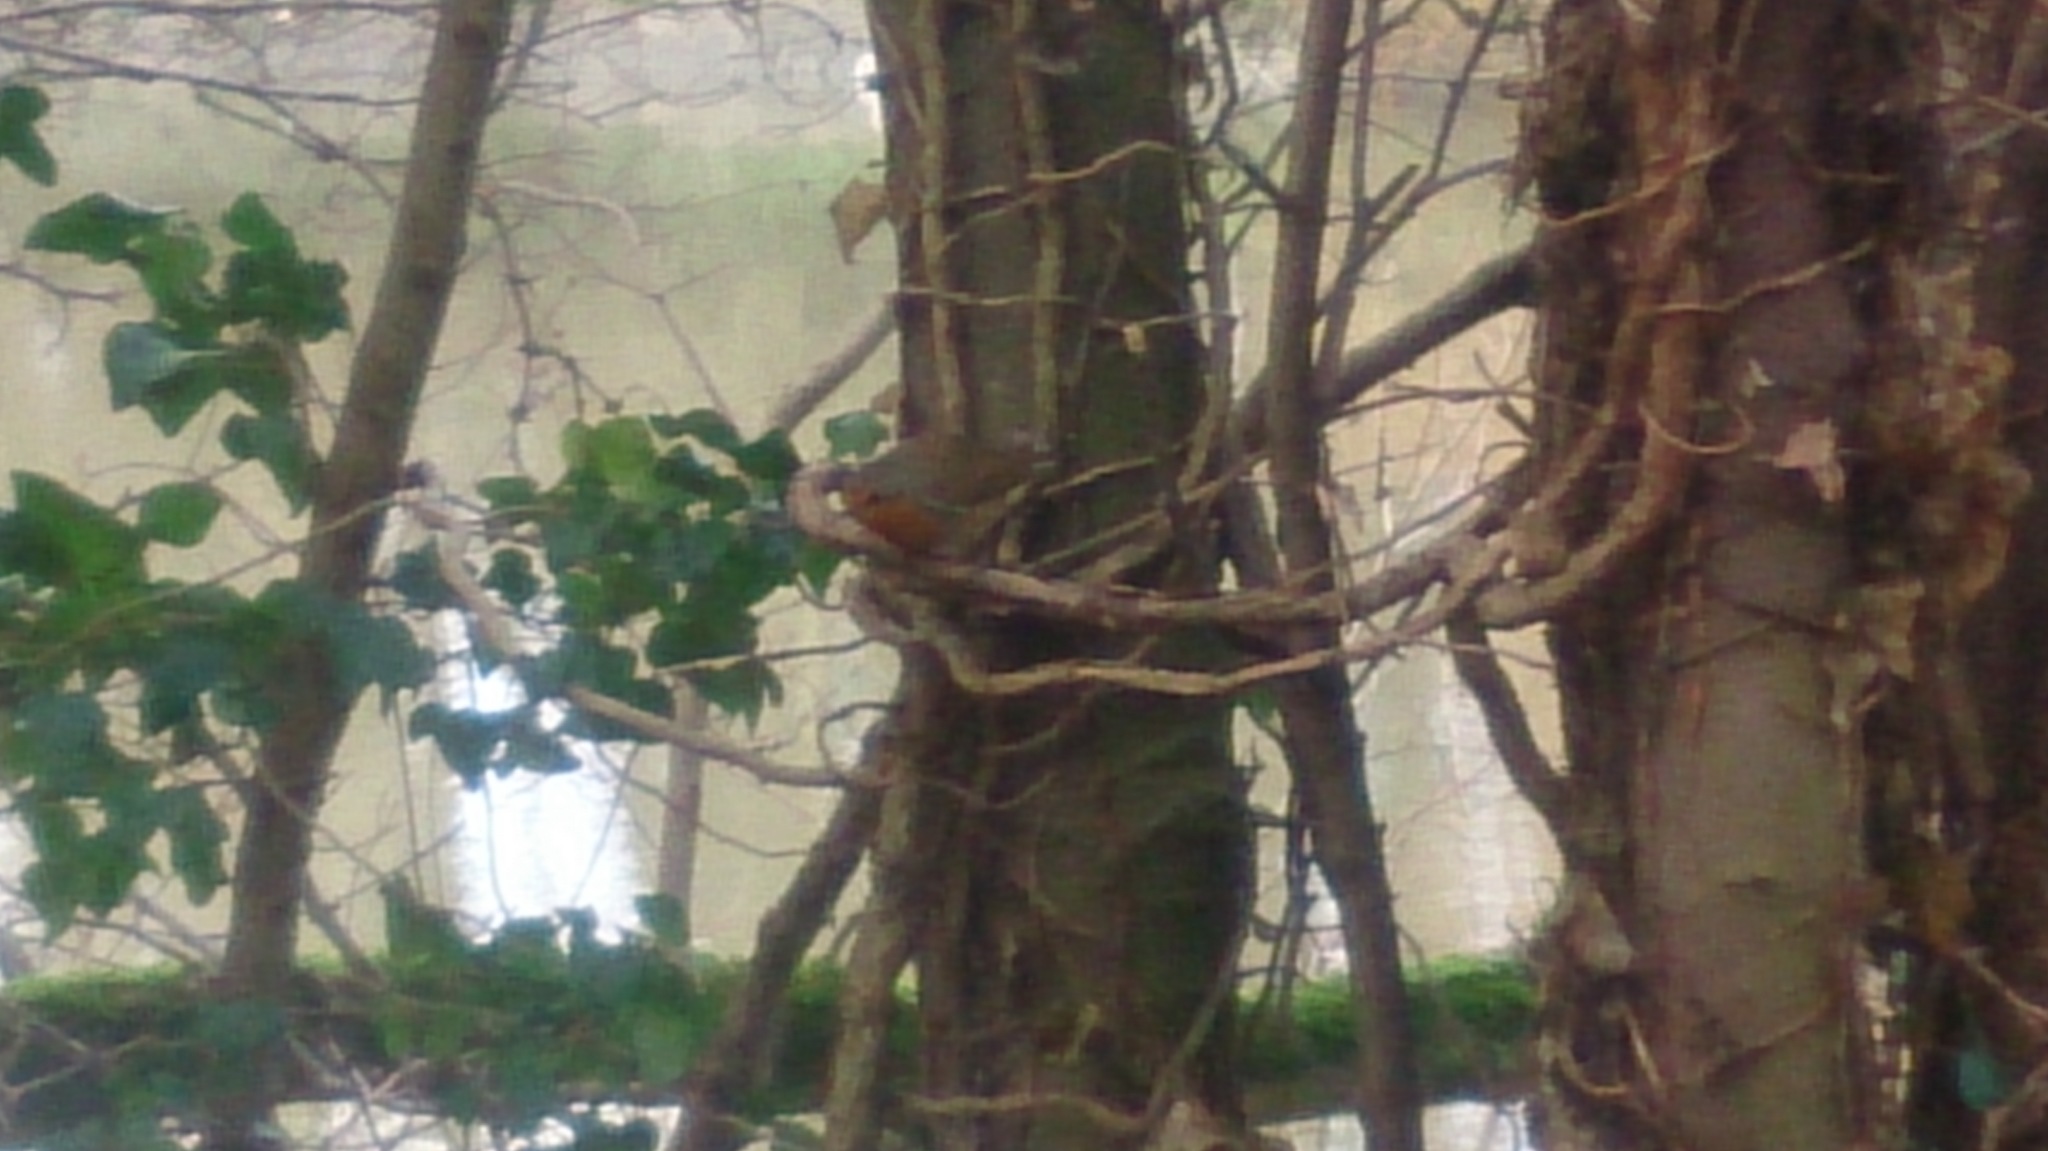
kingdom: Animalia
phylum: Chordata
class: Aves
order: Passeriformes
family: Muscicapidae
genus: Erithacus
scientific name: Erithacus rubecula
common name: European robin
